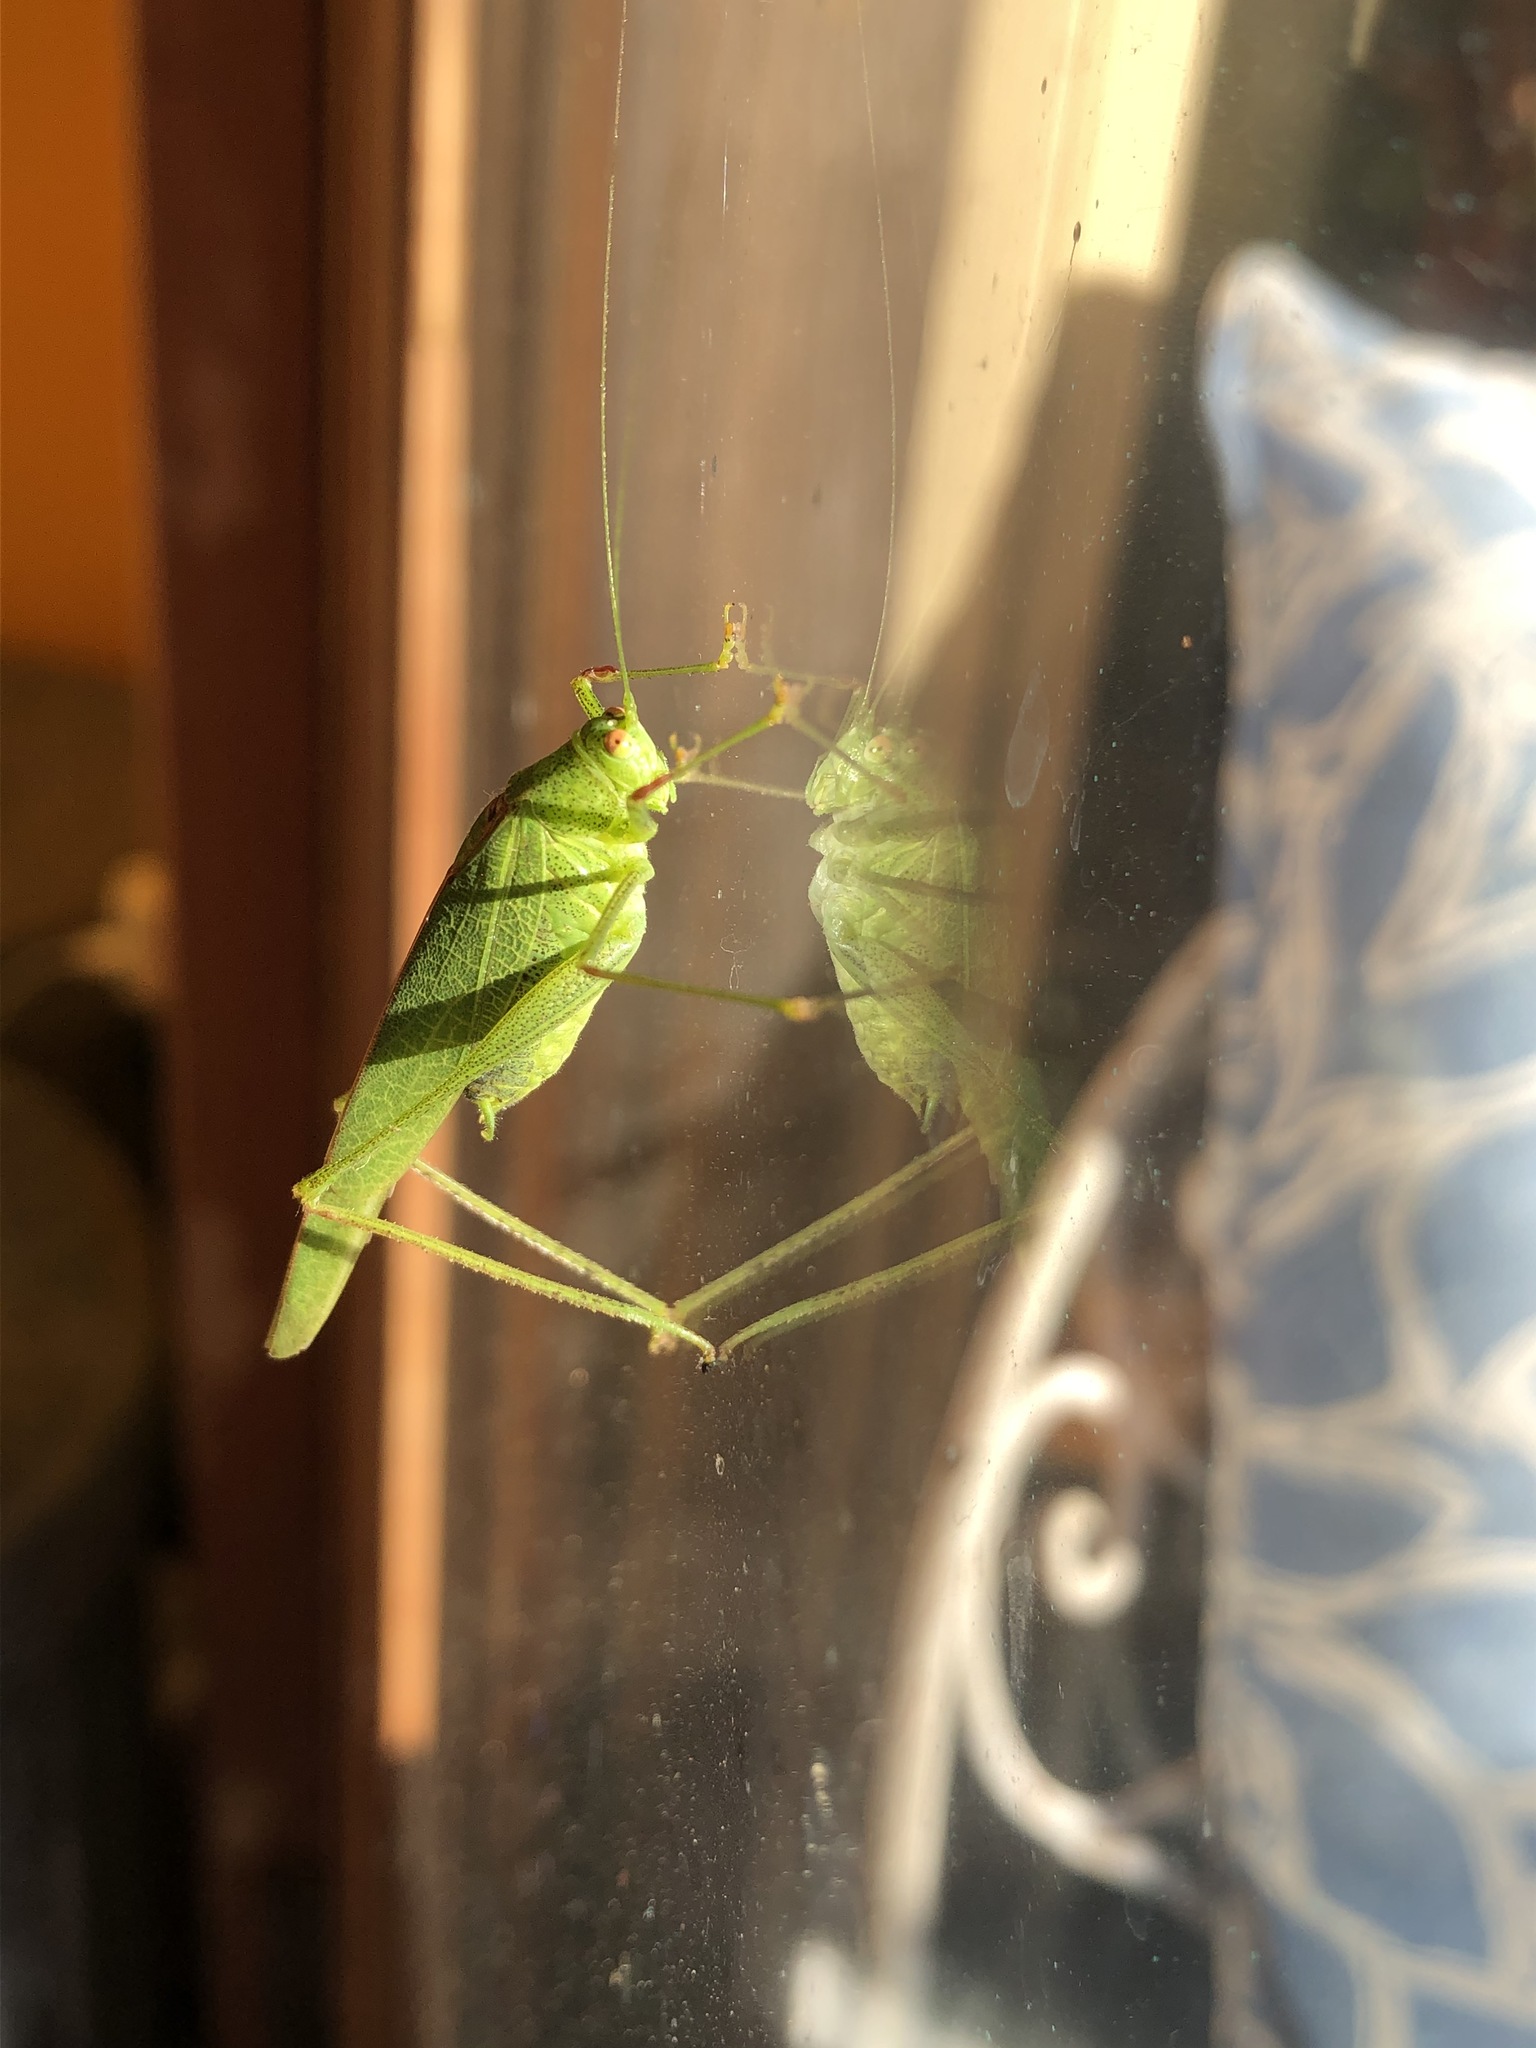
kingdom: Animalia
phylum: Arthropoda
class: Insecta
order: Orthoptera
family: Tettigoniidae
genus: Phaneroptera
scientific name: Phaneroptera nana
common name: Southern sickle bush-cricket
